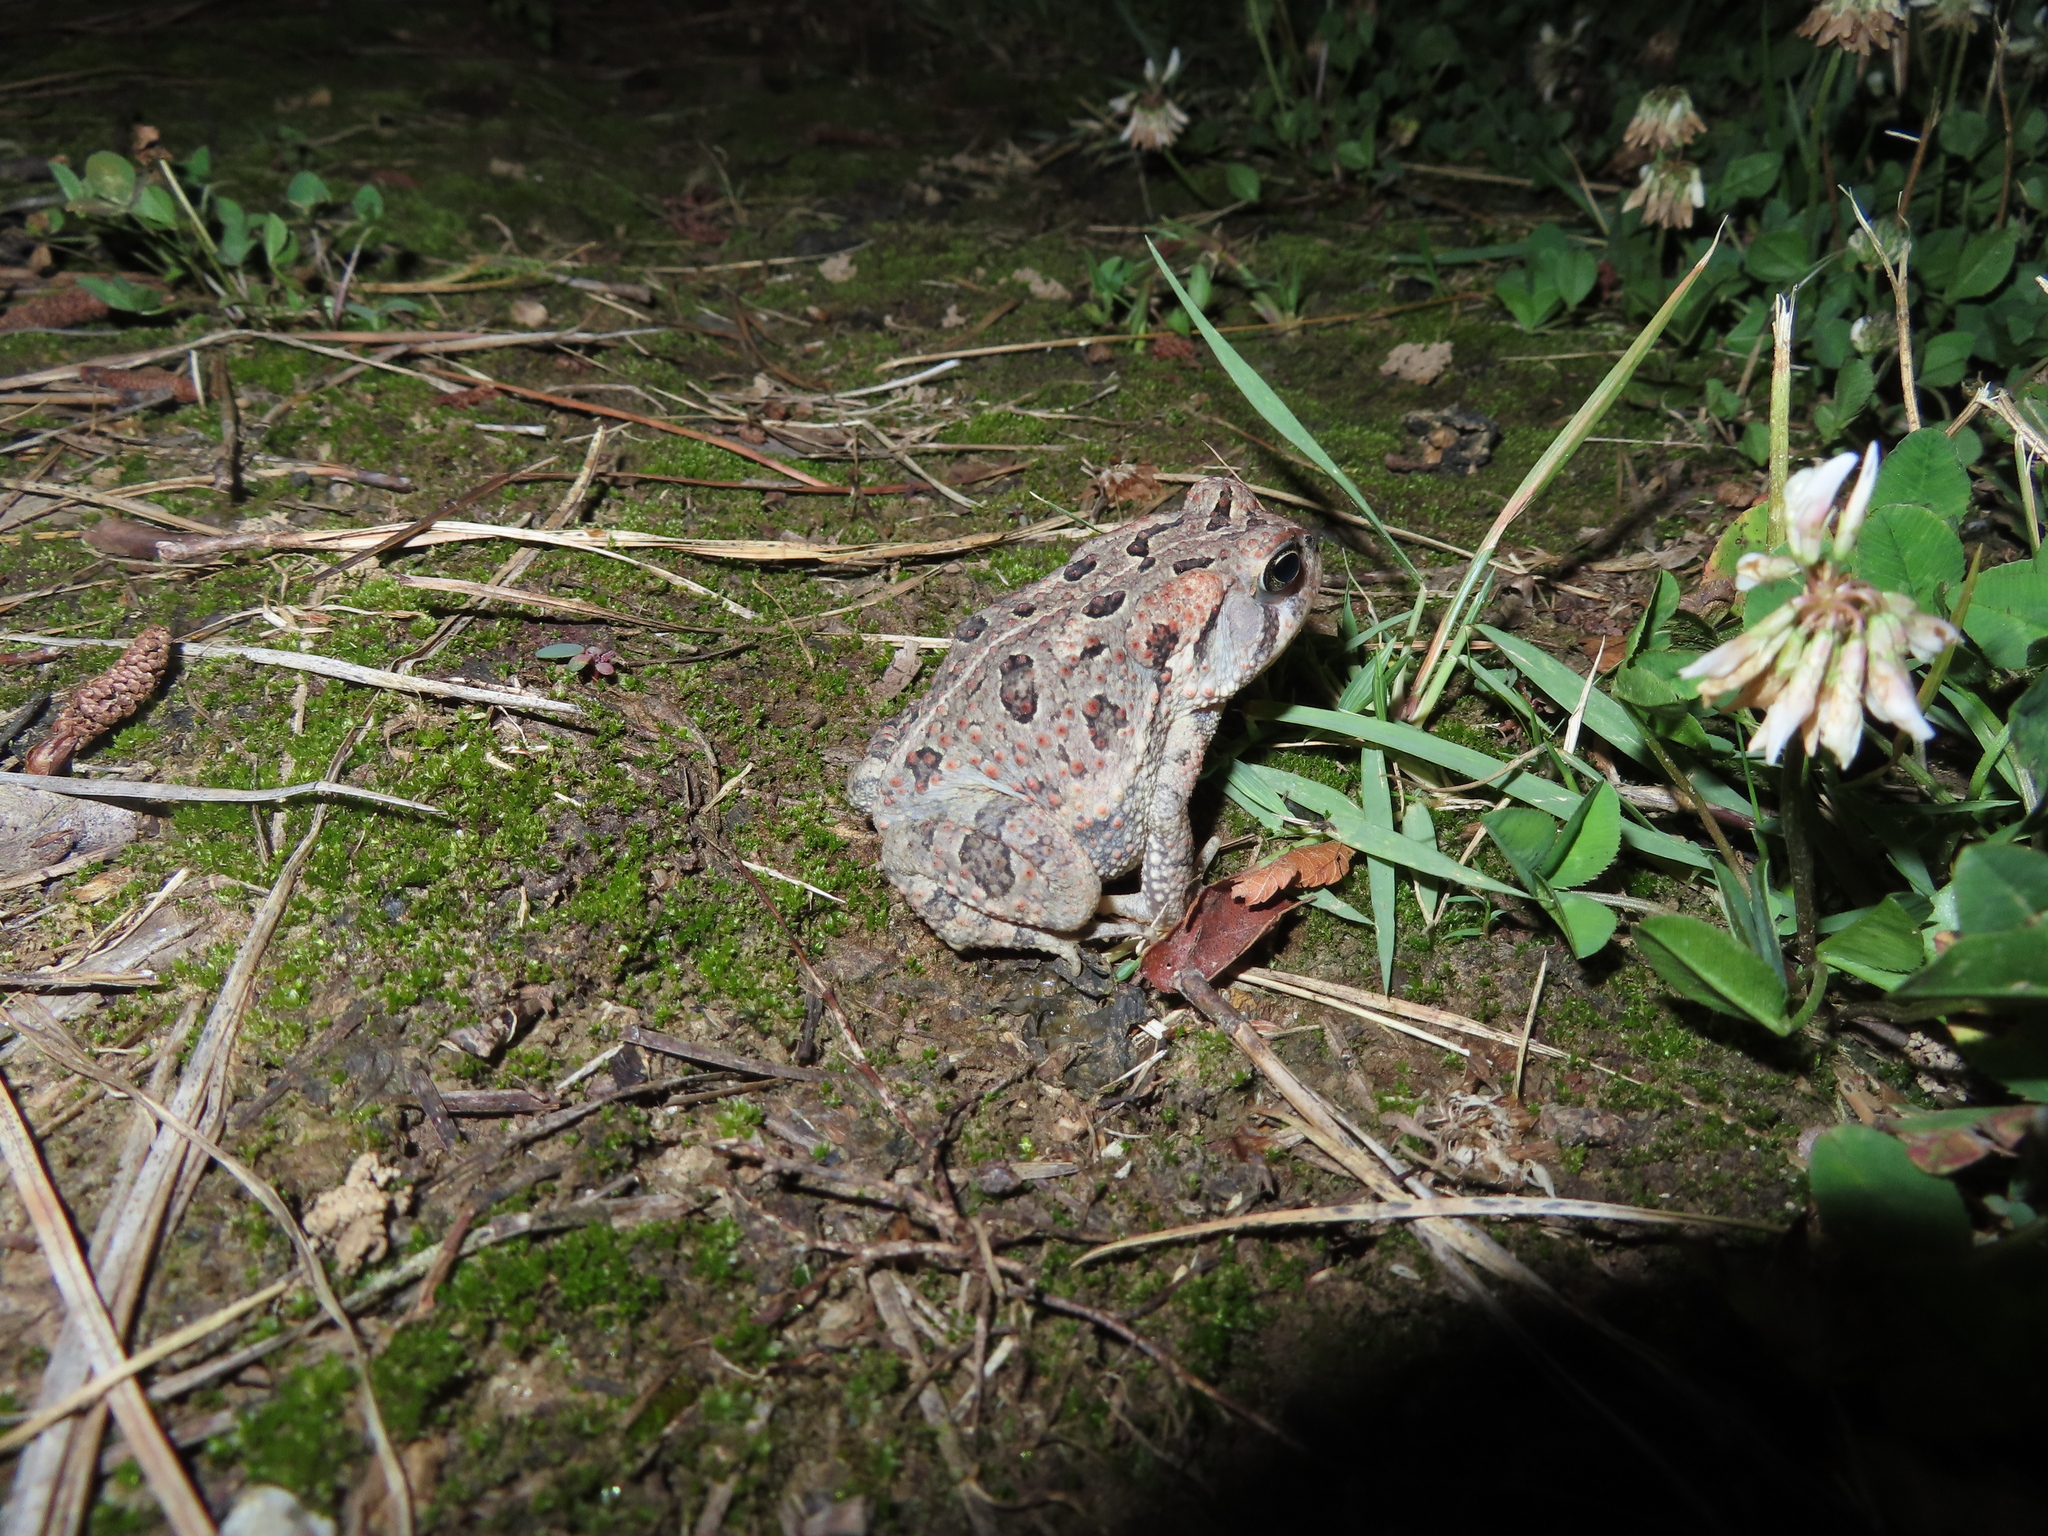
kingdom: Animalia
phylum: Chordata
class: Amphibia
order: Anura
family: Bufonidae
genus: Anaxyrus
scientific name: Anaxyrus fowleri
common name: Fowler's toad
